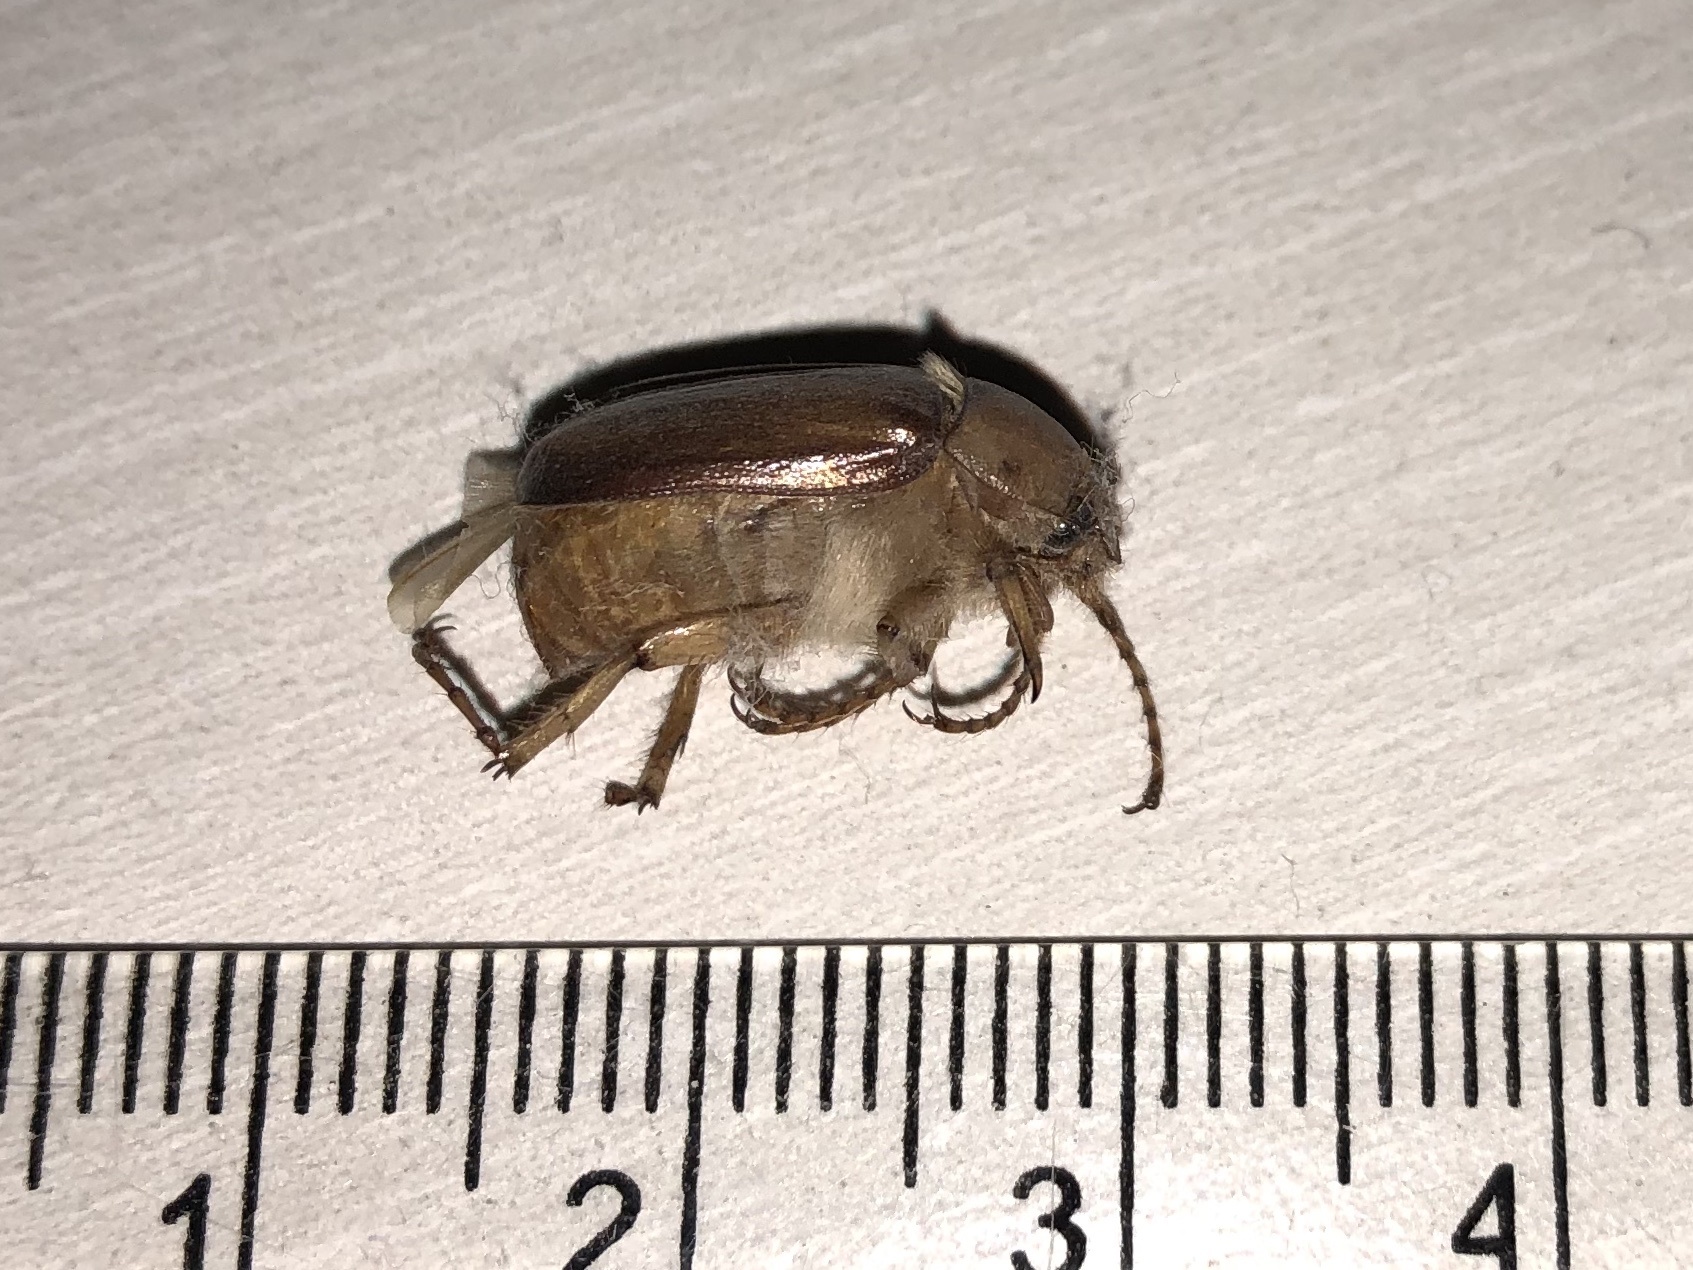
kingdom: Animalia
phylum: Arthropoda
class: Insecta
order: Coleoptera
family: Scarabaeidae
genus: Rhizotrogus
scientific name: Rhizotrogus aestivus
